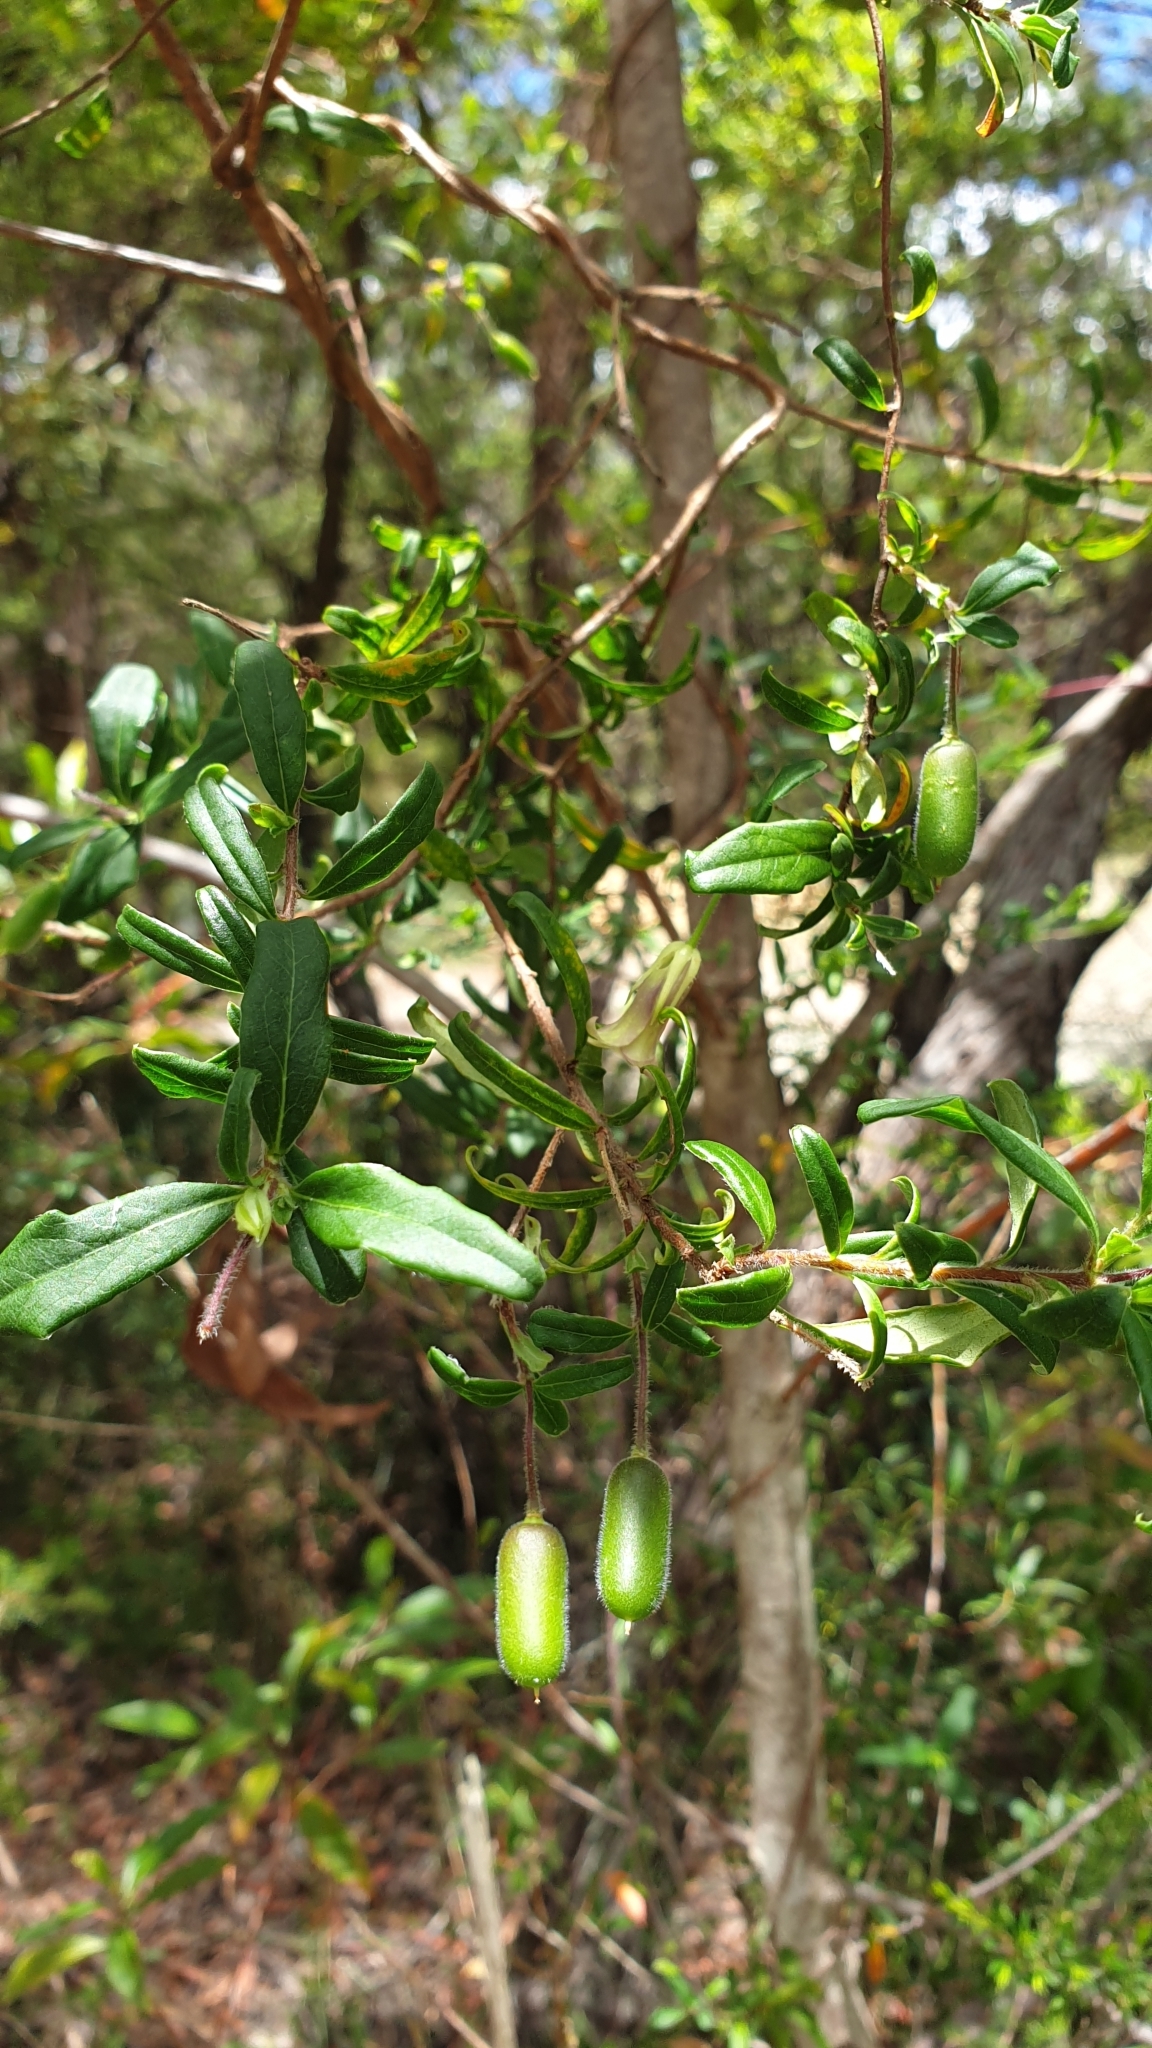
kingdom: Plantae
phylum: Tracheophyta
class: Magnoliopsida
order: Apiales
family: Pittosporaceae
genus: Billardiera
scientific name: Billardiera scandens
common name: Apple-berry
